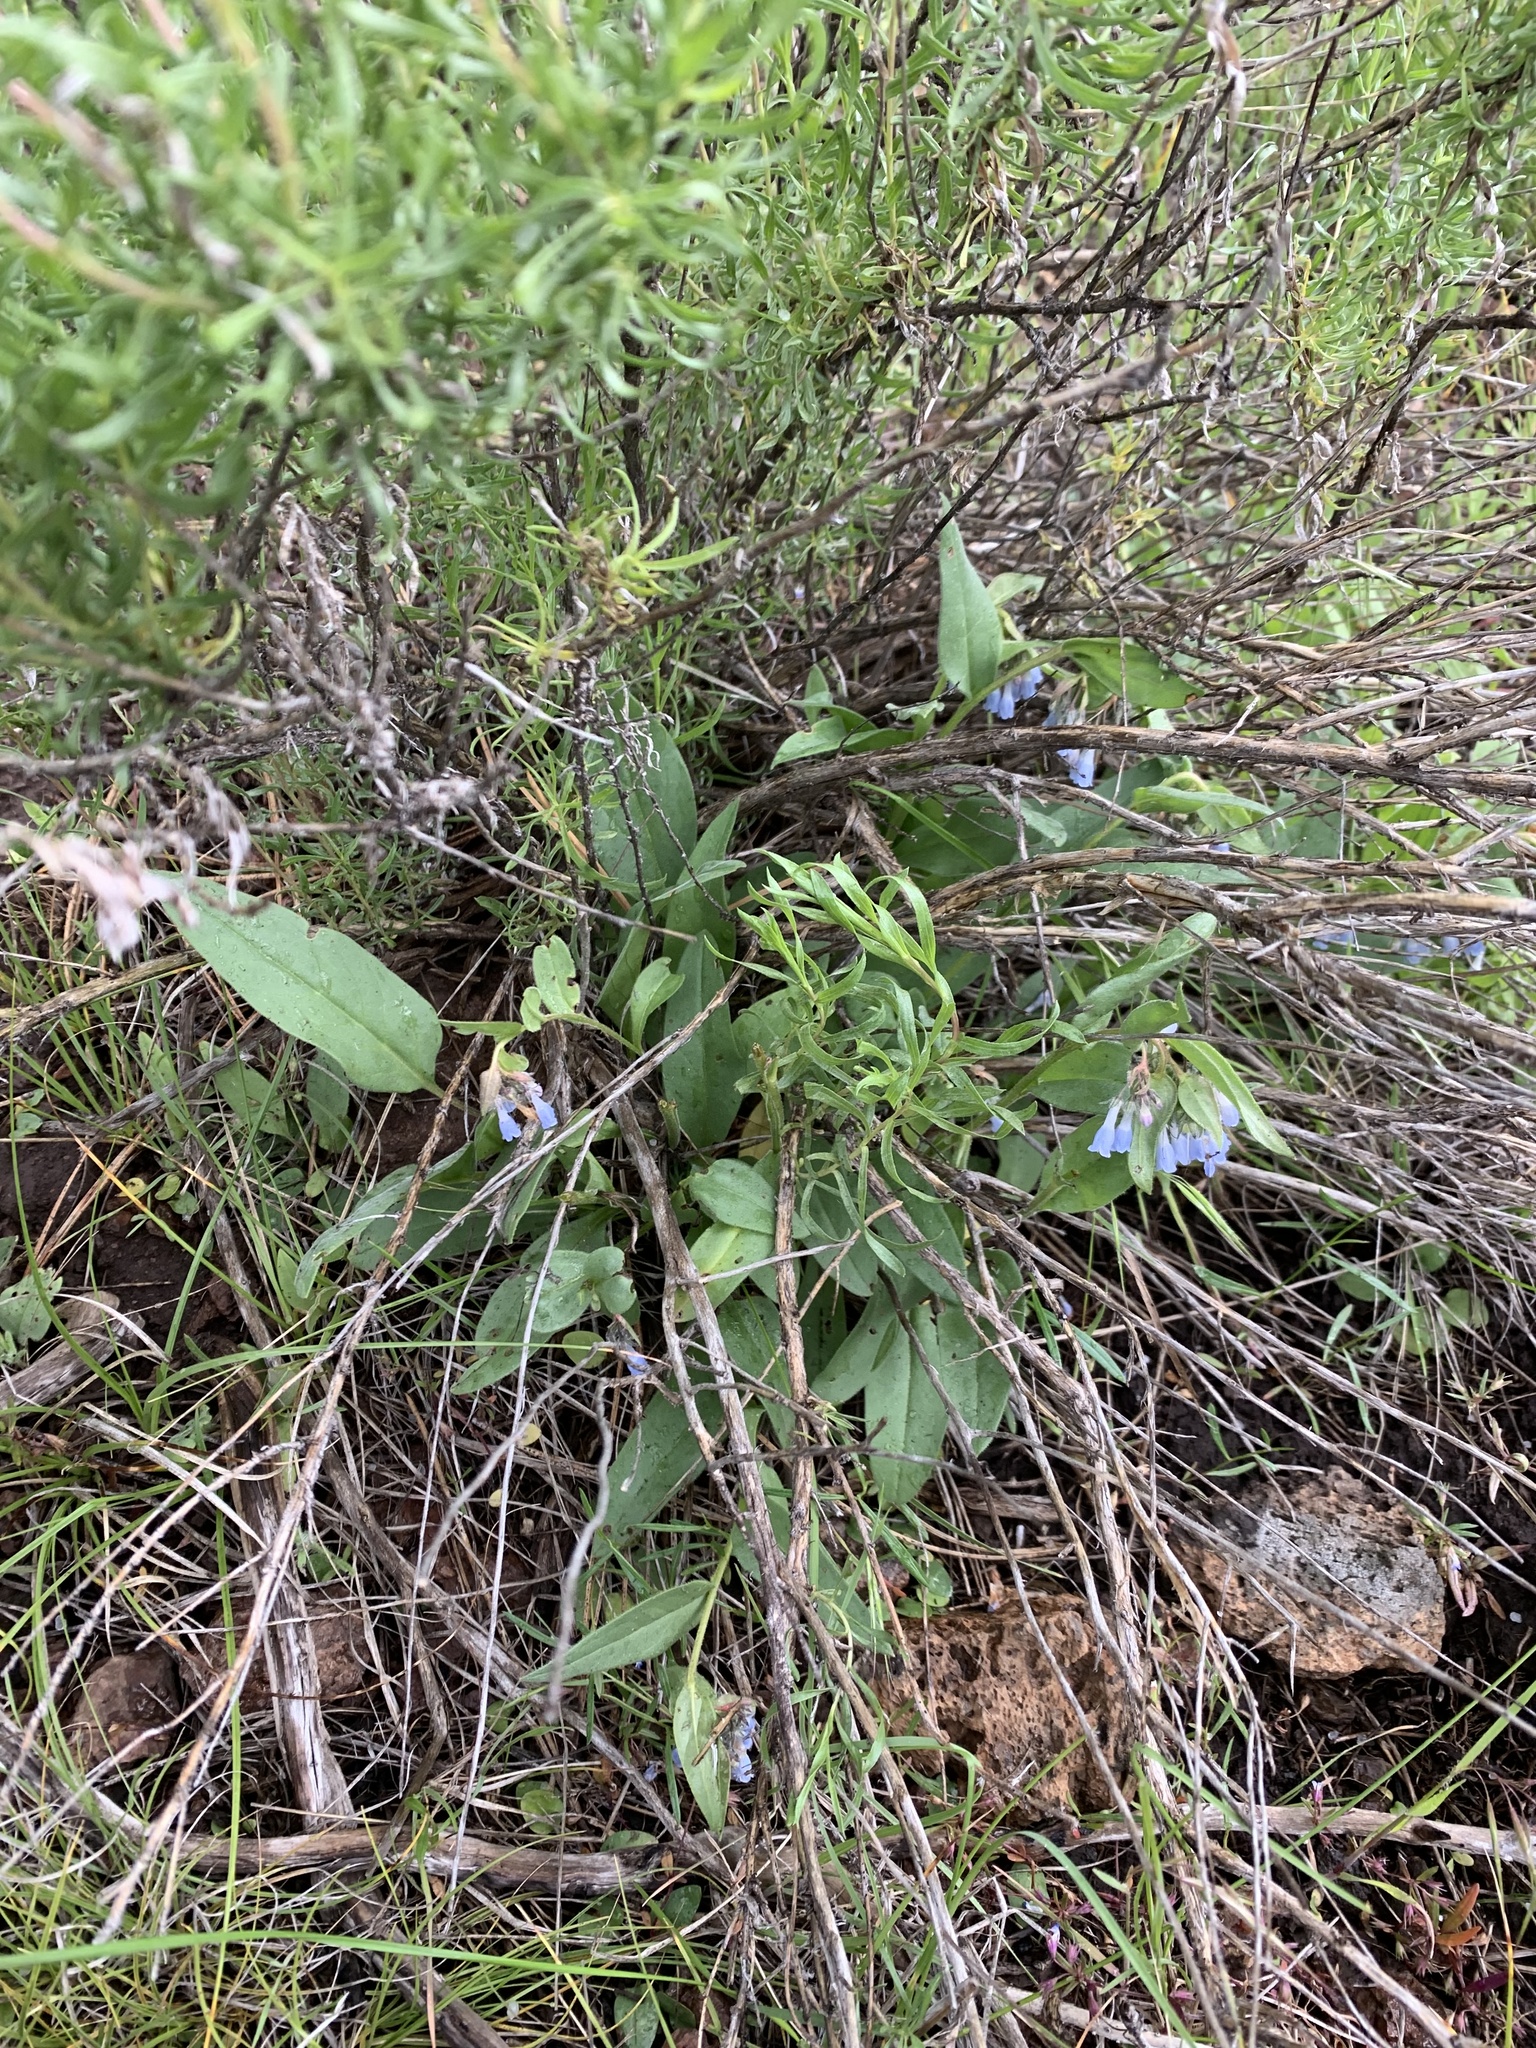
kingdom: Plantae
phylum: Tracheophyta
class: Magnoliopsida
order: Boraginales
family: Boraginaceae
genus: Mertensia
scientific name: Mertensia cusickii
